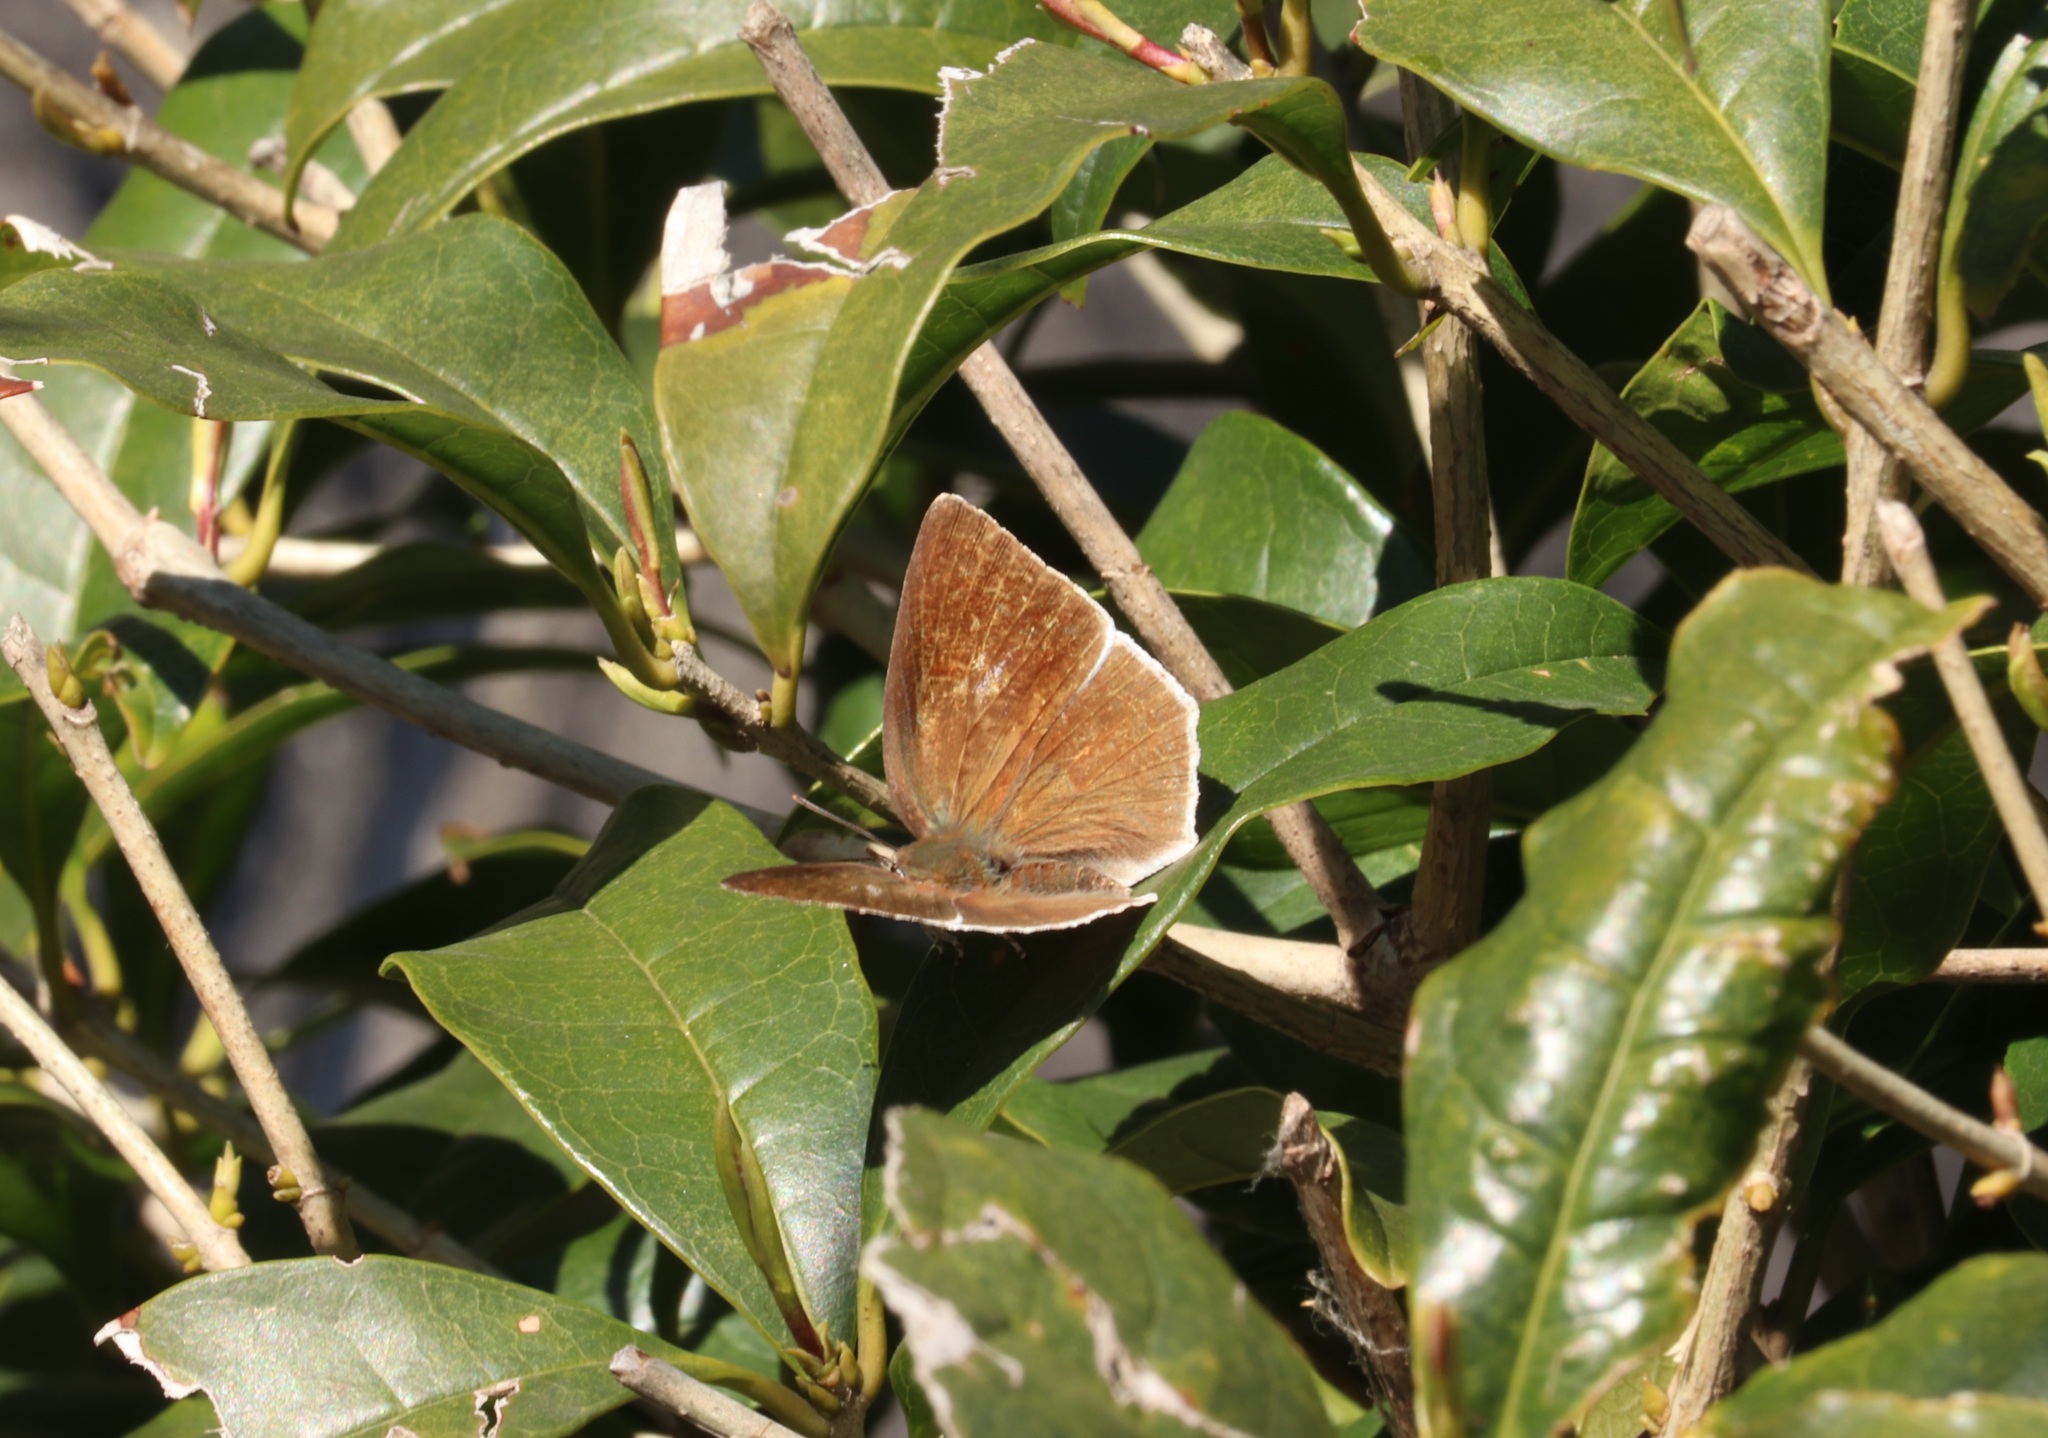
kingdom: Animalia
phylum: Arthropoda
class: Insecta
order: Lepidoptera
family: Lycaenidae
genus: Curetis
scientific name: Curetis acuta
